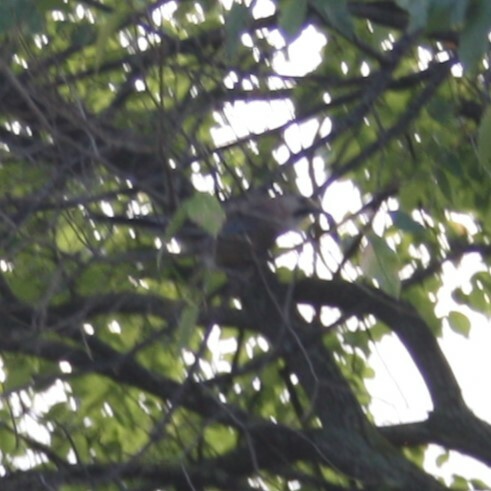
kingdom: Animalia
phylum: Chordata
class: Aves
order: Passeriformes
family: Corvidae
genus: Garrulus
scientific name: Garrulus glandarius
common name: Eurasian jay
